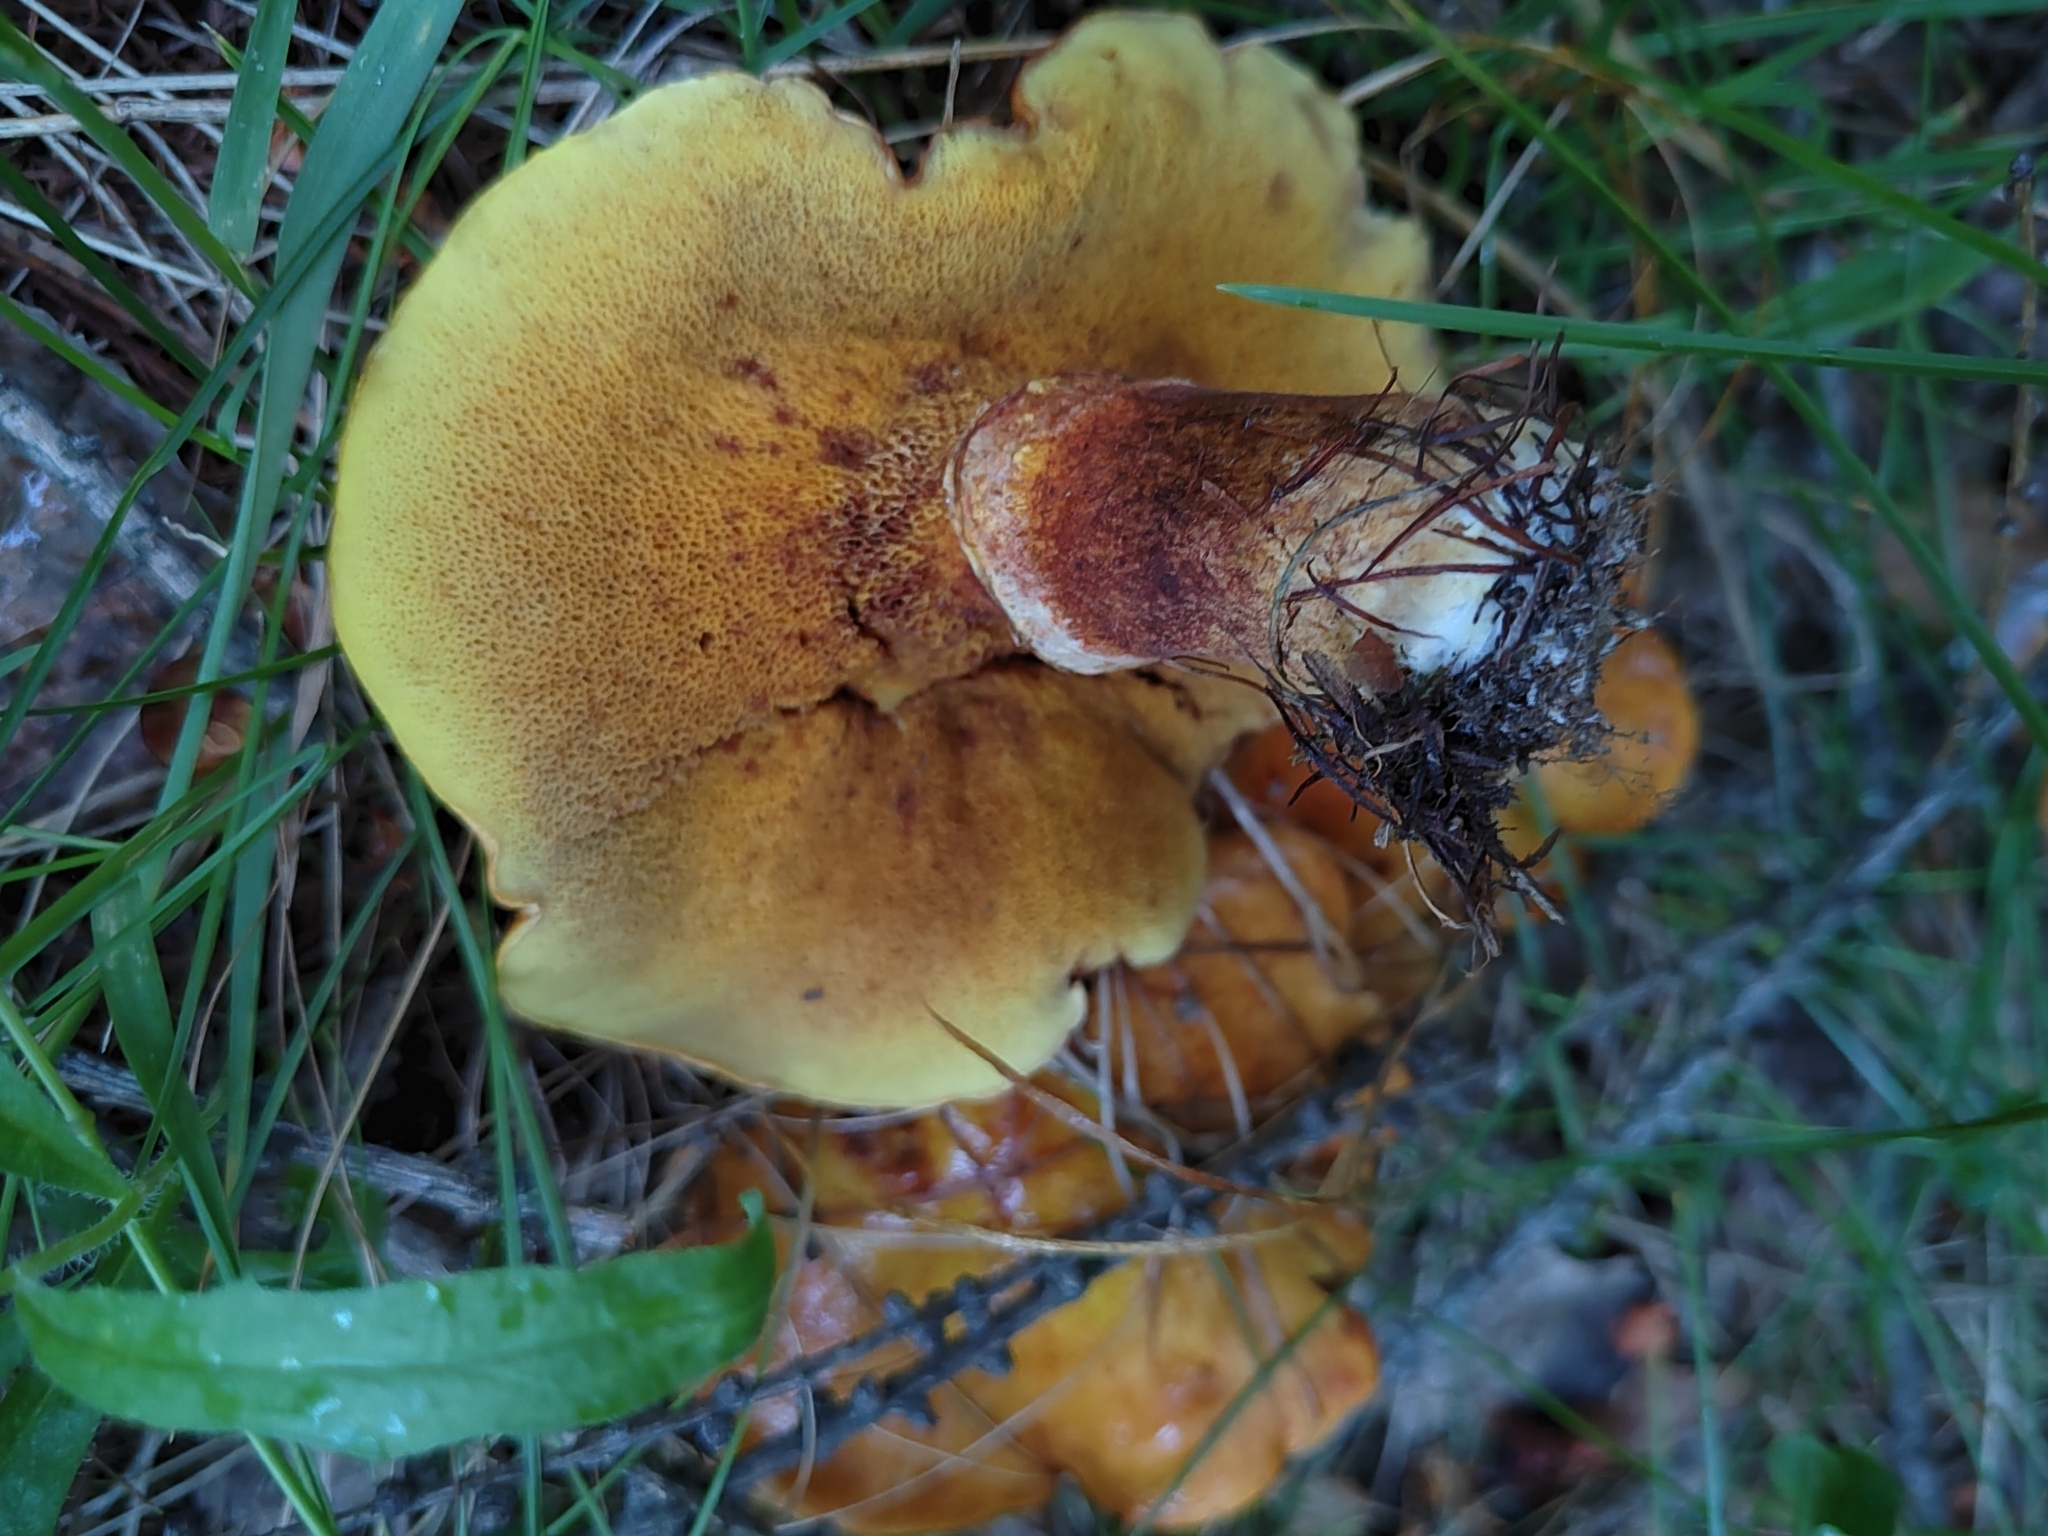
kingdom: Fungi
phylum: Basidiomycota
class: Agaricomycetes
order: Boletales
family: Suillaceae
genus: Suillus
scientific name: Suillus grevillei
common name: Larch bolete
